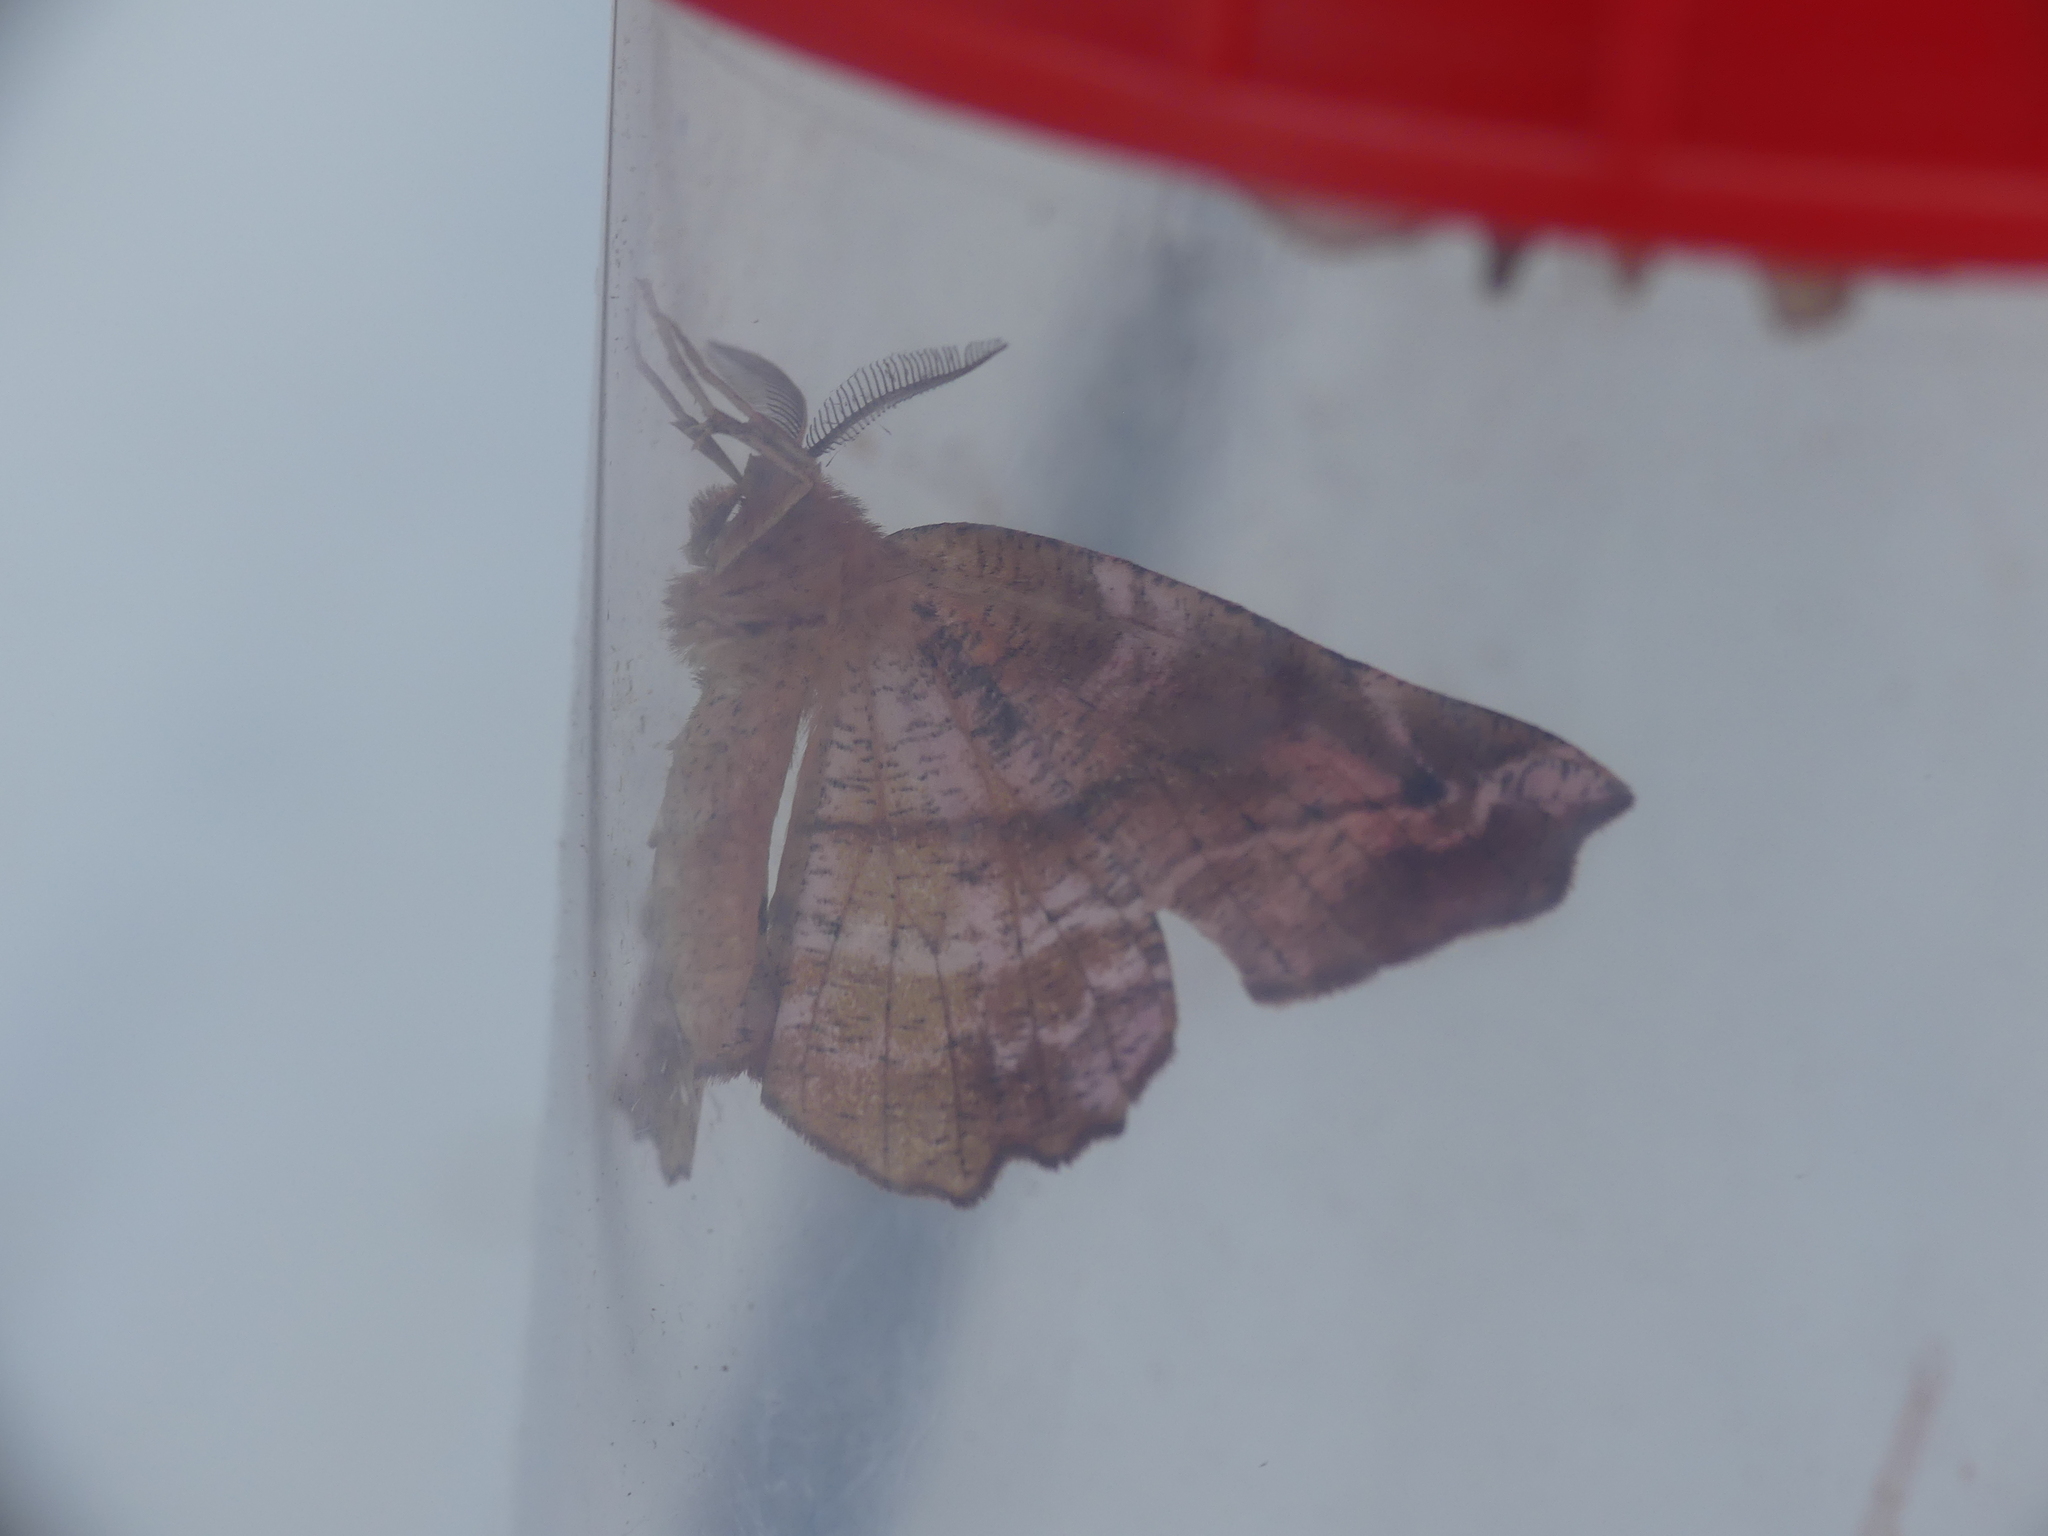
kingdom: Animalia
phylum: Arthropoda
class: Insecta
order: Lepidoptera
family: Geometridae
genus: Apeira
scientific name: Apeira syringaria
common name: Lilac beauty
